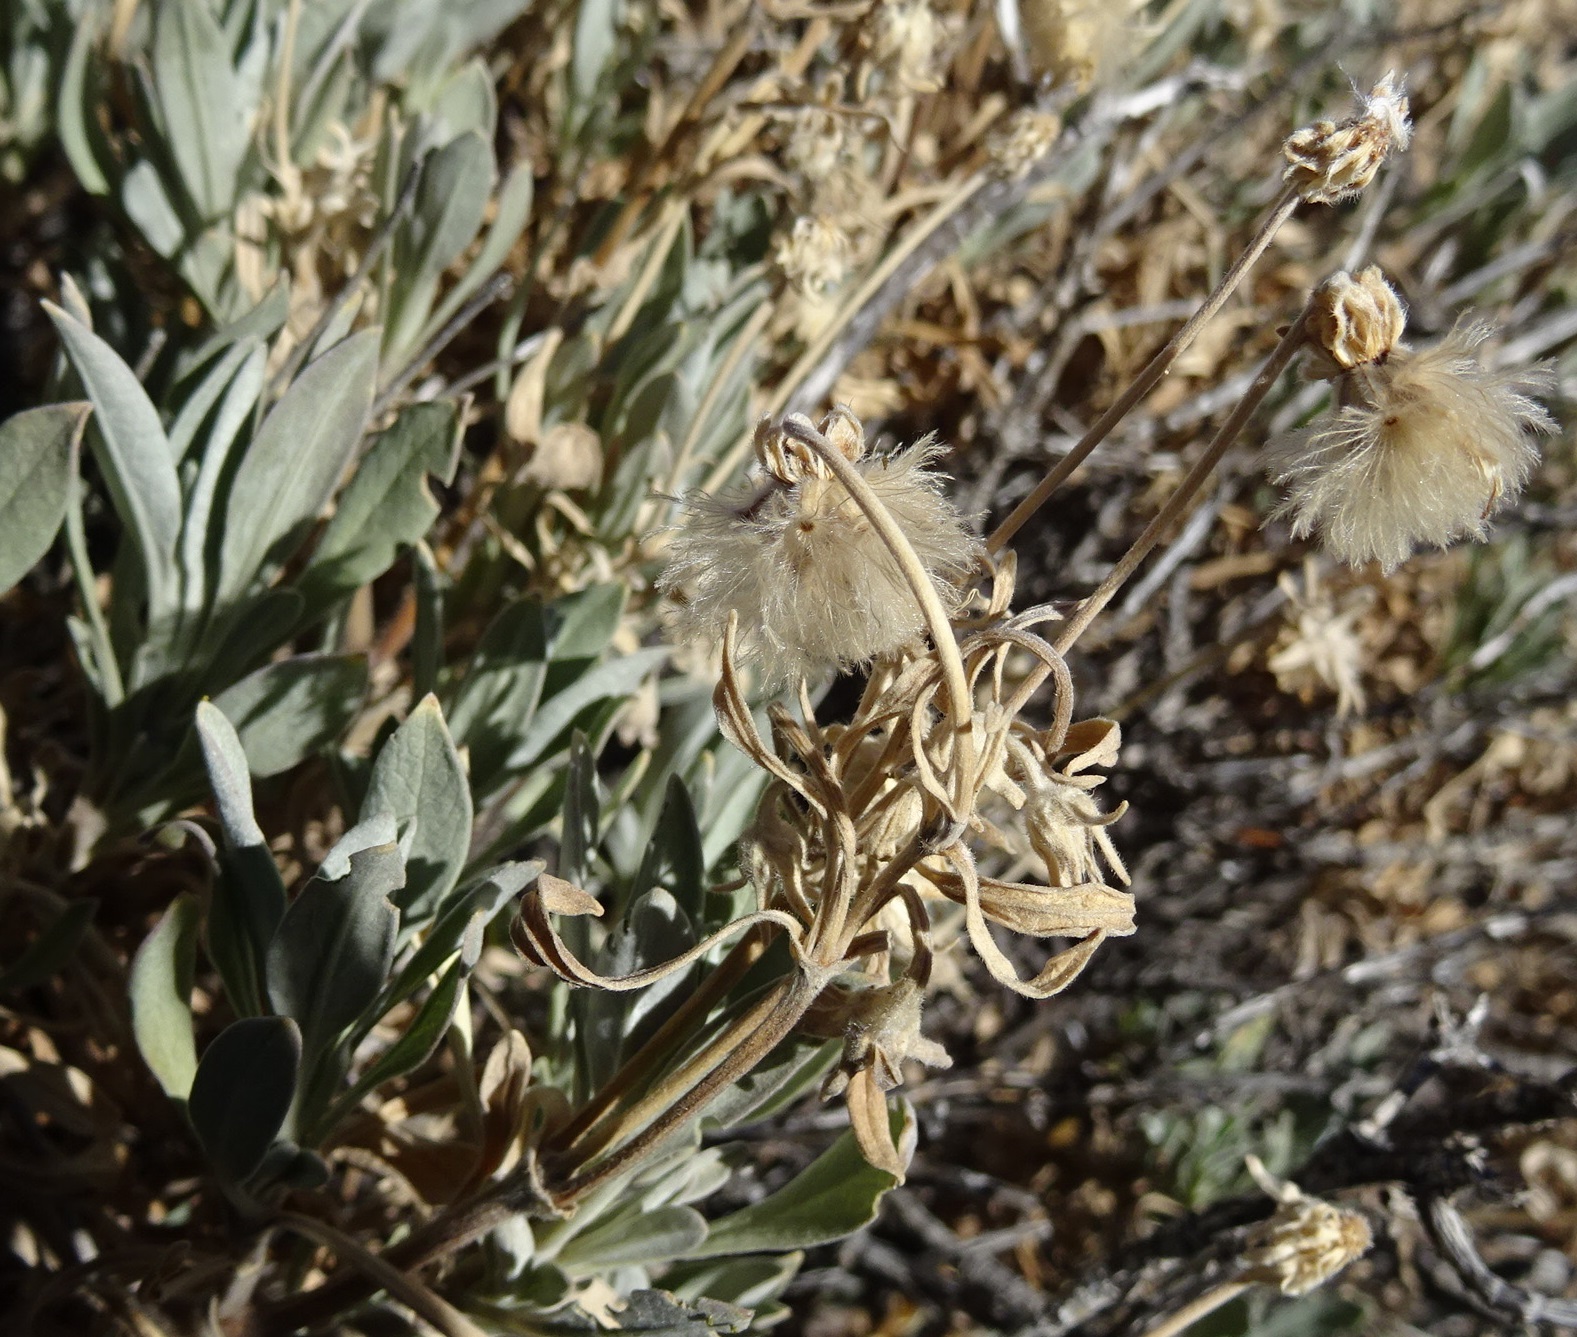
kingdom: Plantae
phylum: Tracheophyta
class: Magnoliopsida
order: Dipsacales
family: Caprifoliaceae
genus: Pterocephalus
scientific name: Pterocephalus lasiospermus
